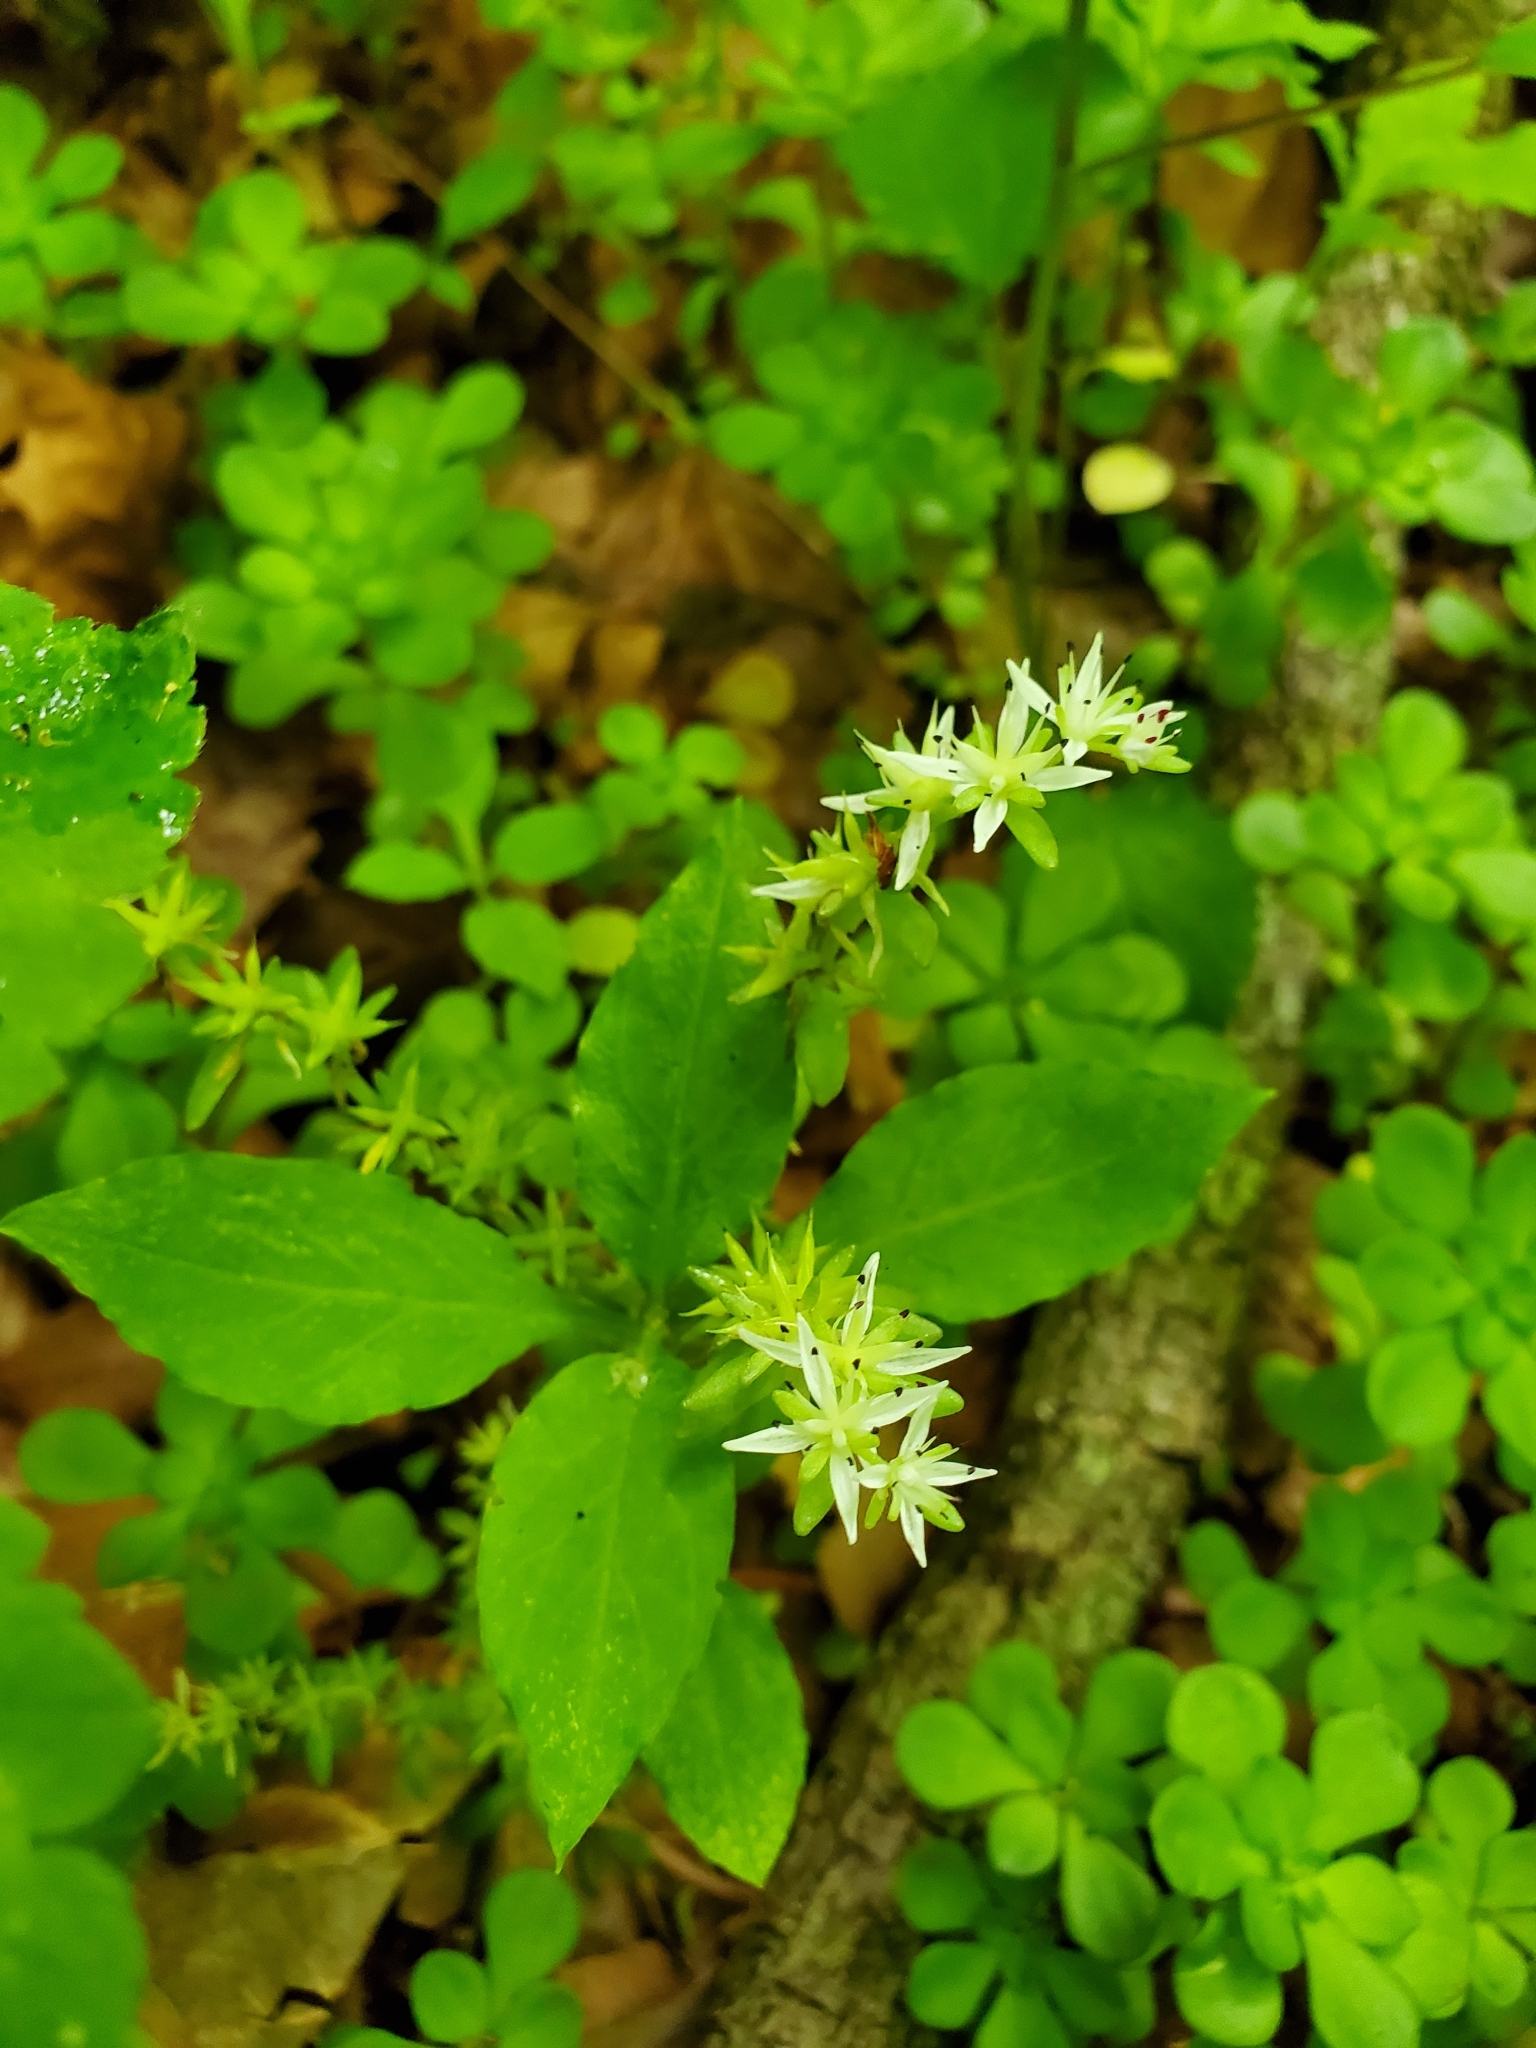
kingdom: Plantae
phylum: Tracheophyta
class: Magnoliopsida
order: Saxifragales
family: Crassulaceae
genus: Sedum
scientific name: Sedum ternatum
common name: Wild stonecrop
